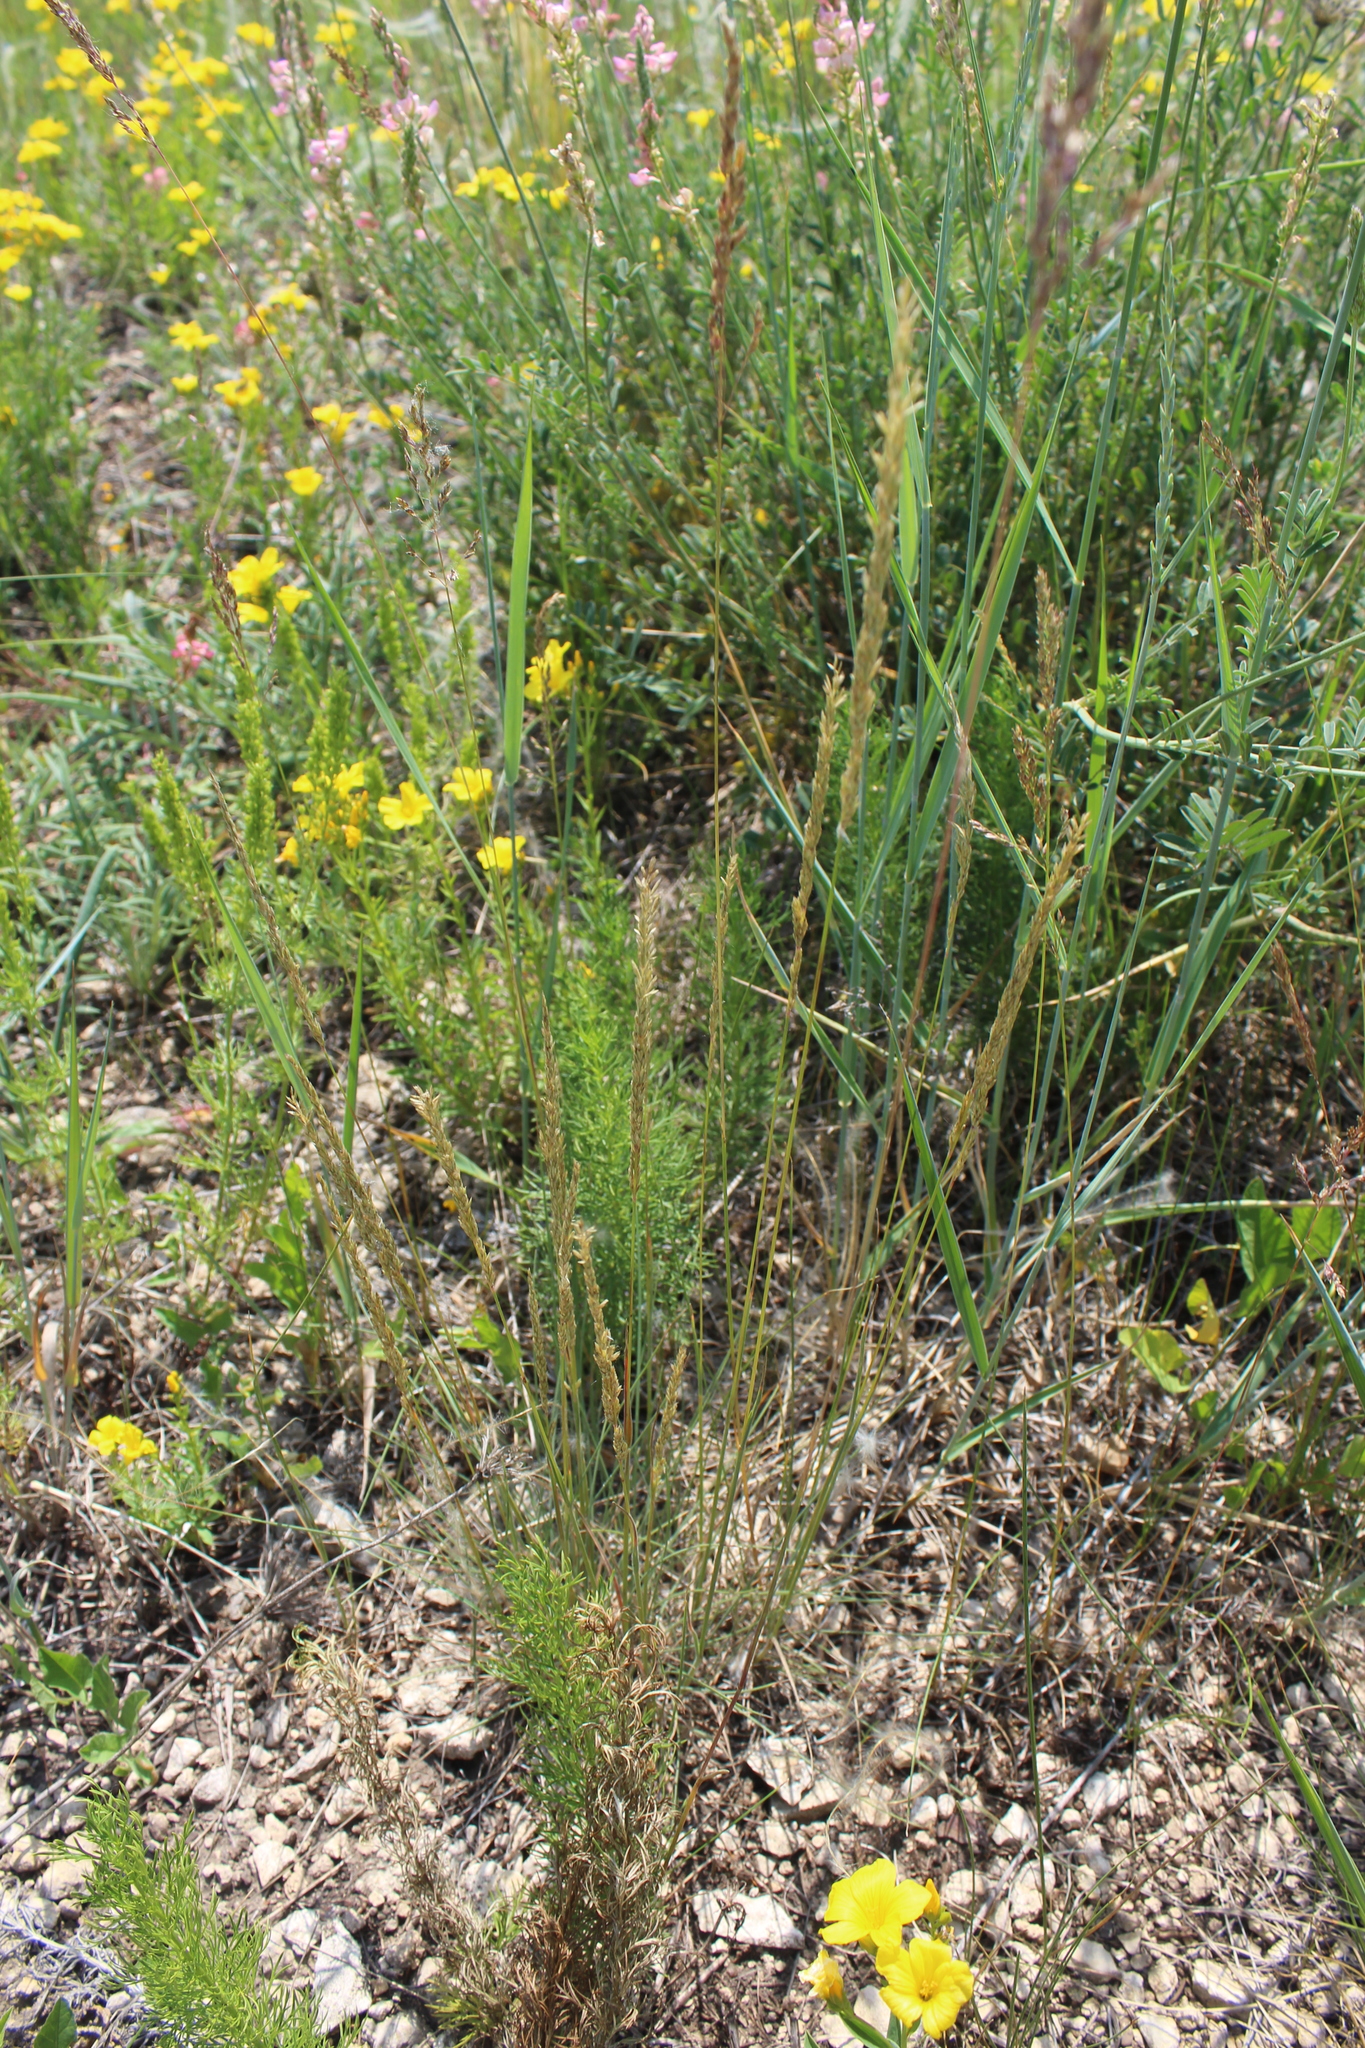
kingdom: Plantae
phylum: Tracheophyta
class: Liliopsida
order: Poales
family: Poaceae
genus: Koeleria
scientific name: Koeleria macrantha
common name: Crested hair-grass
